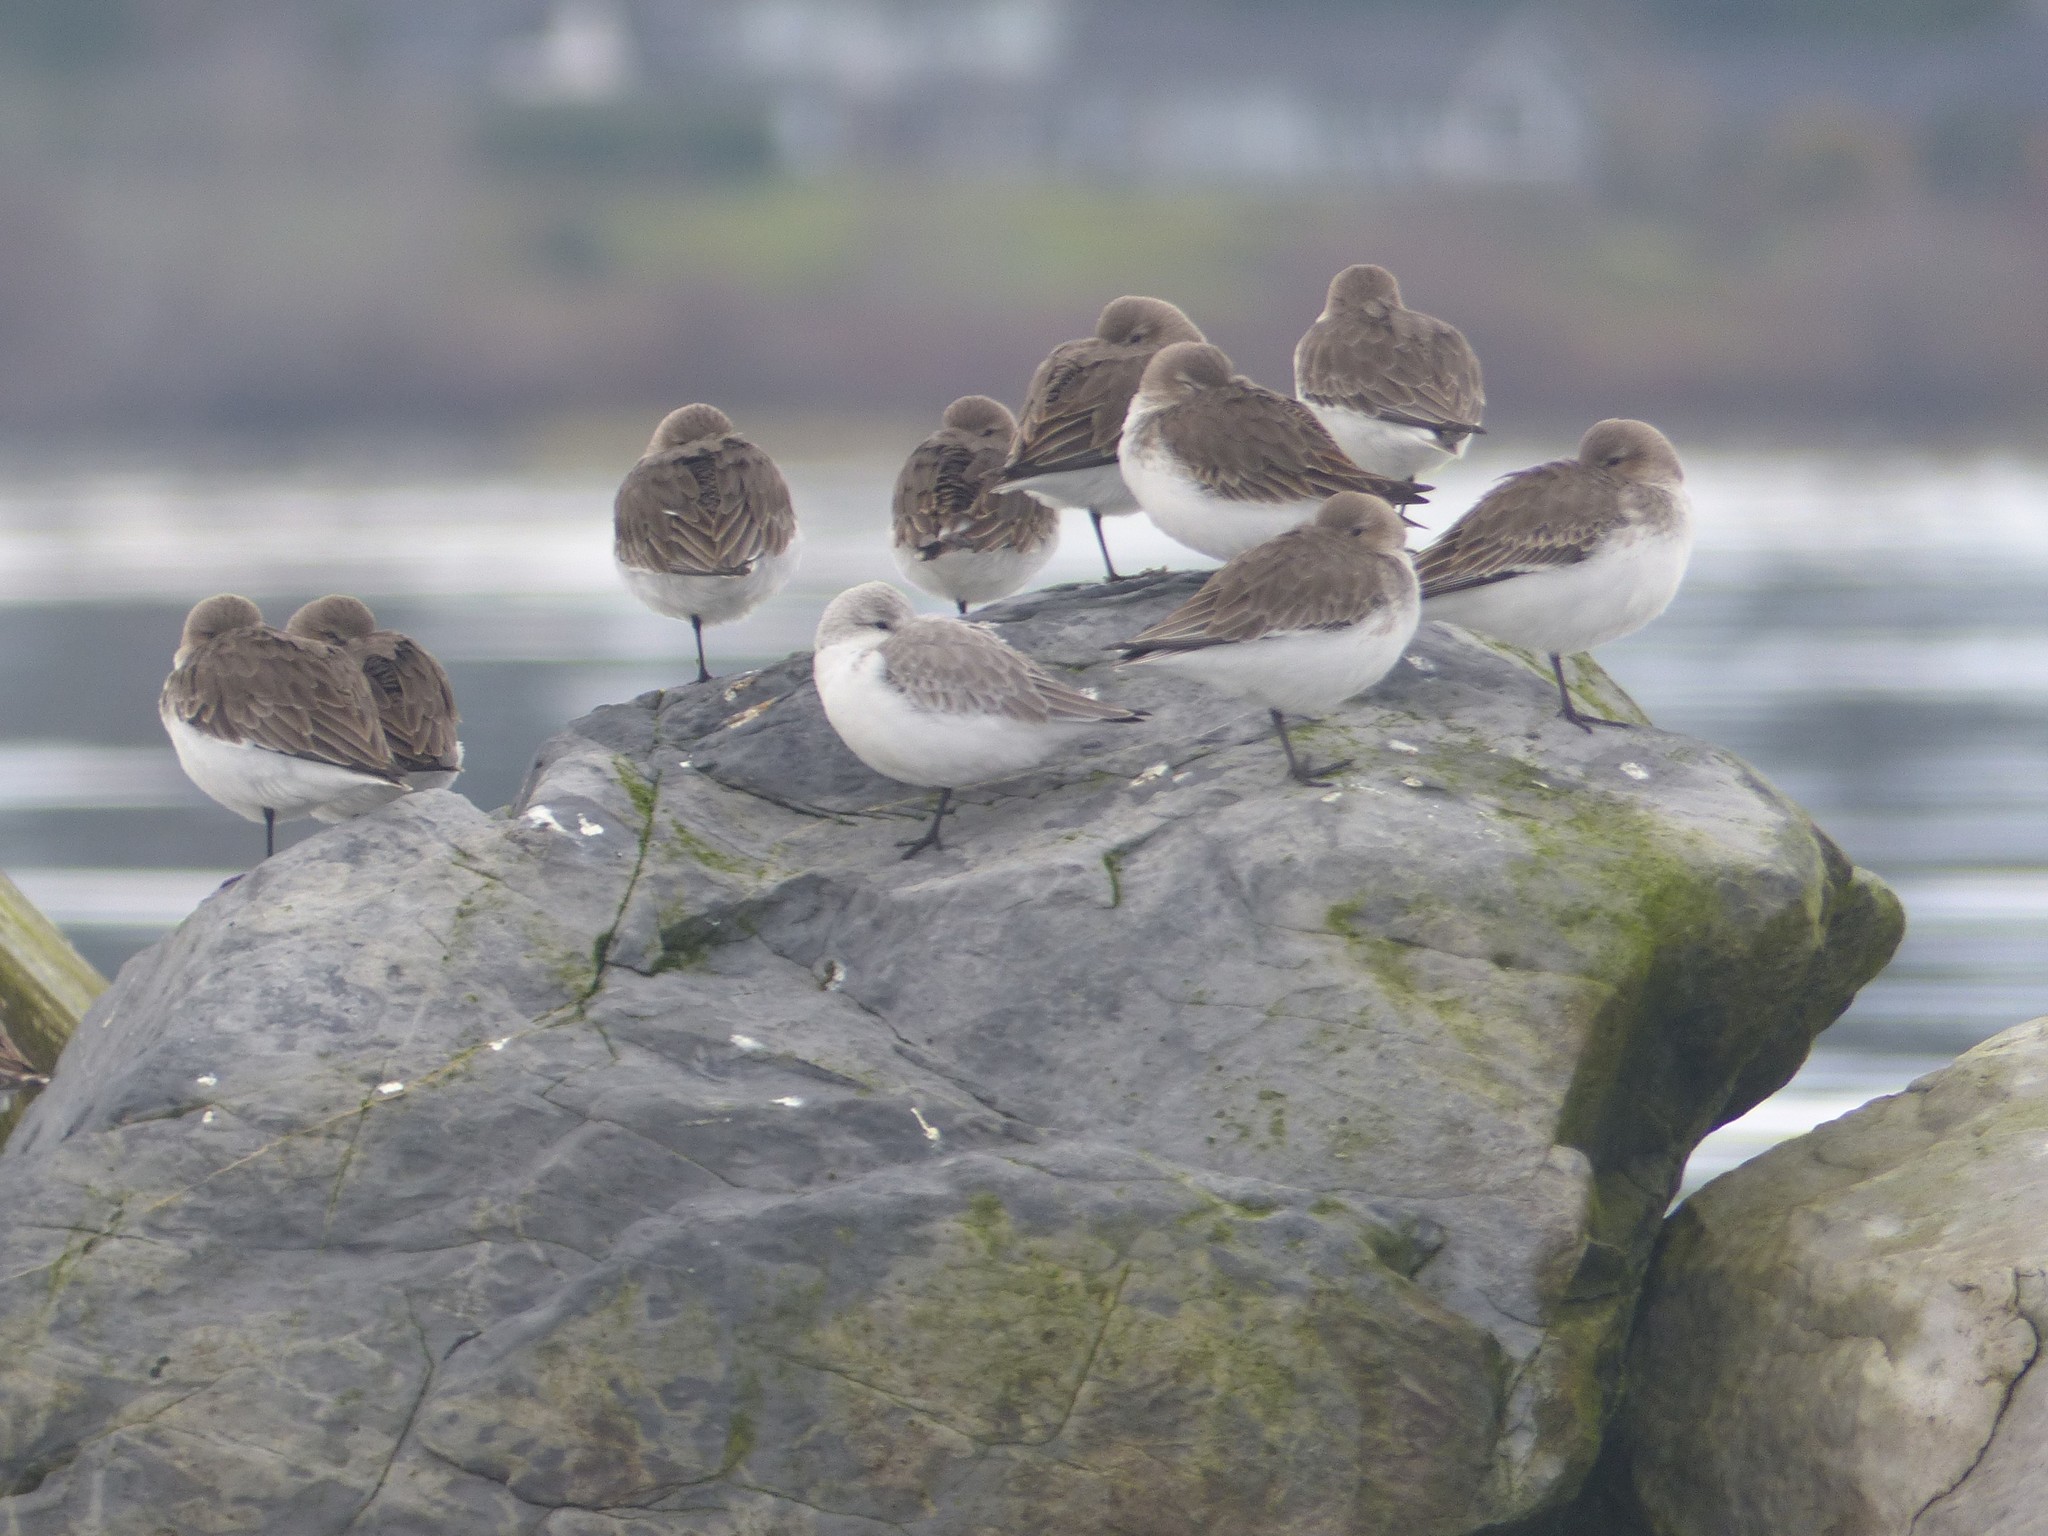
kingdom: Animalia
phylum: Chordata
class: Aves
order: Charadriiformes
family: Scolopacidae
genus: Calidris
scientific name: Calidris alba
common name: Sanderling
